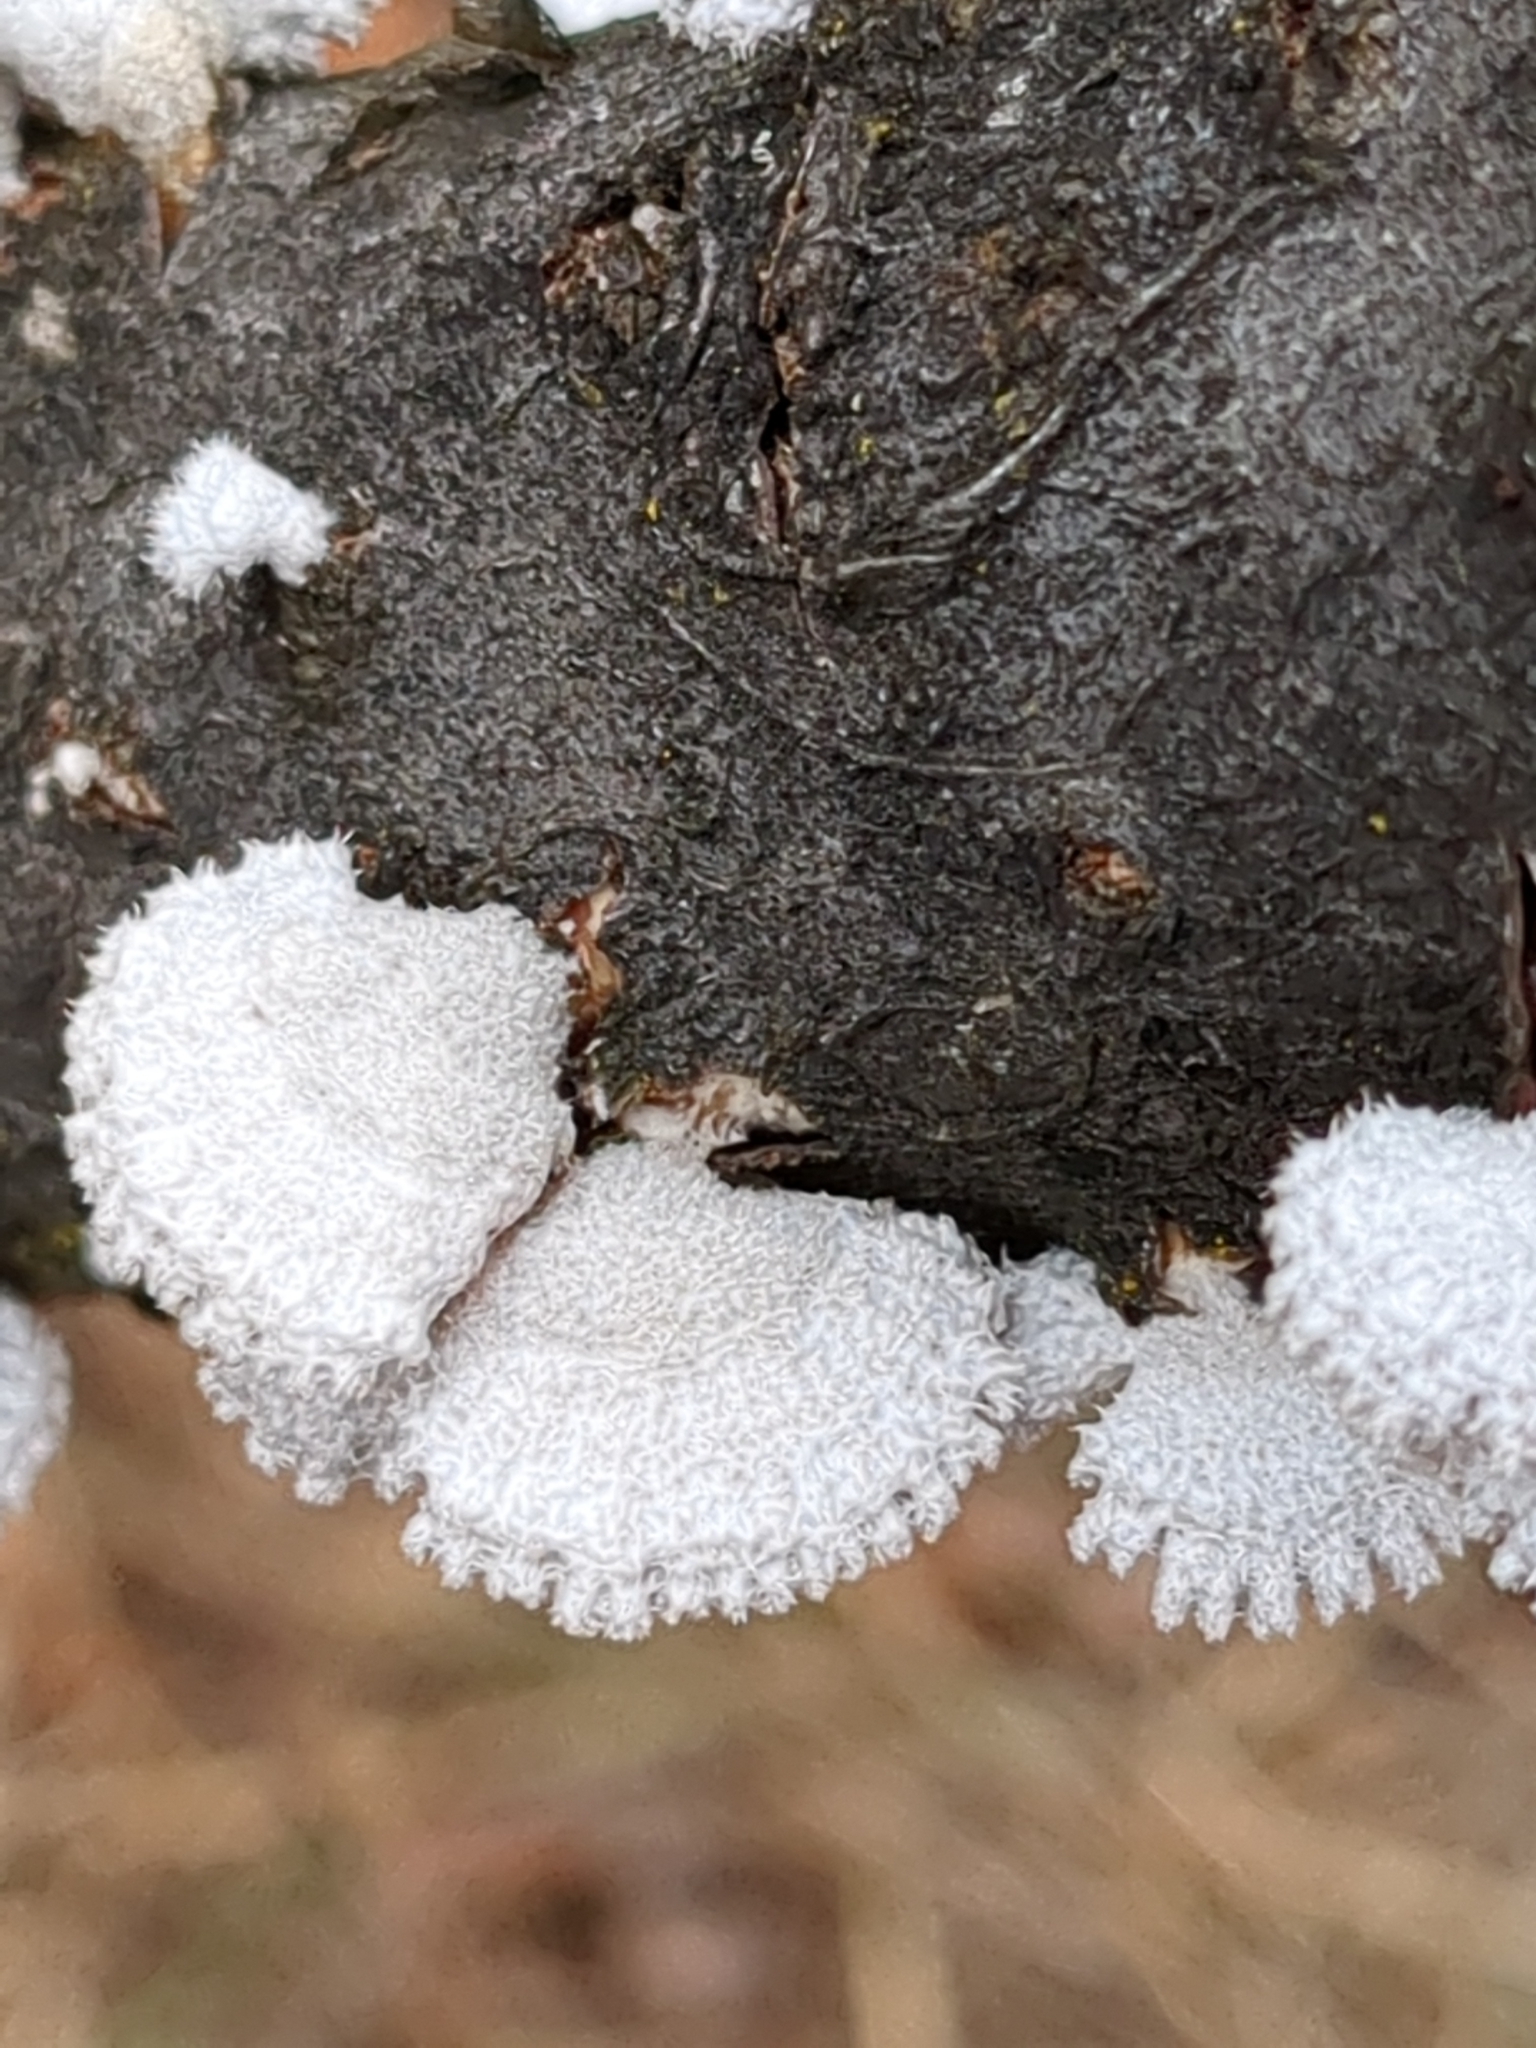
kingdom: Fungi
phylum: Basidiomycota
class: Agaricomycetes
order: Agaricales
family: Schizophyllaceae
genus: Schizophyllum
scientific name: Schizophyllum commune
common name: Common porecrust
